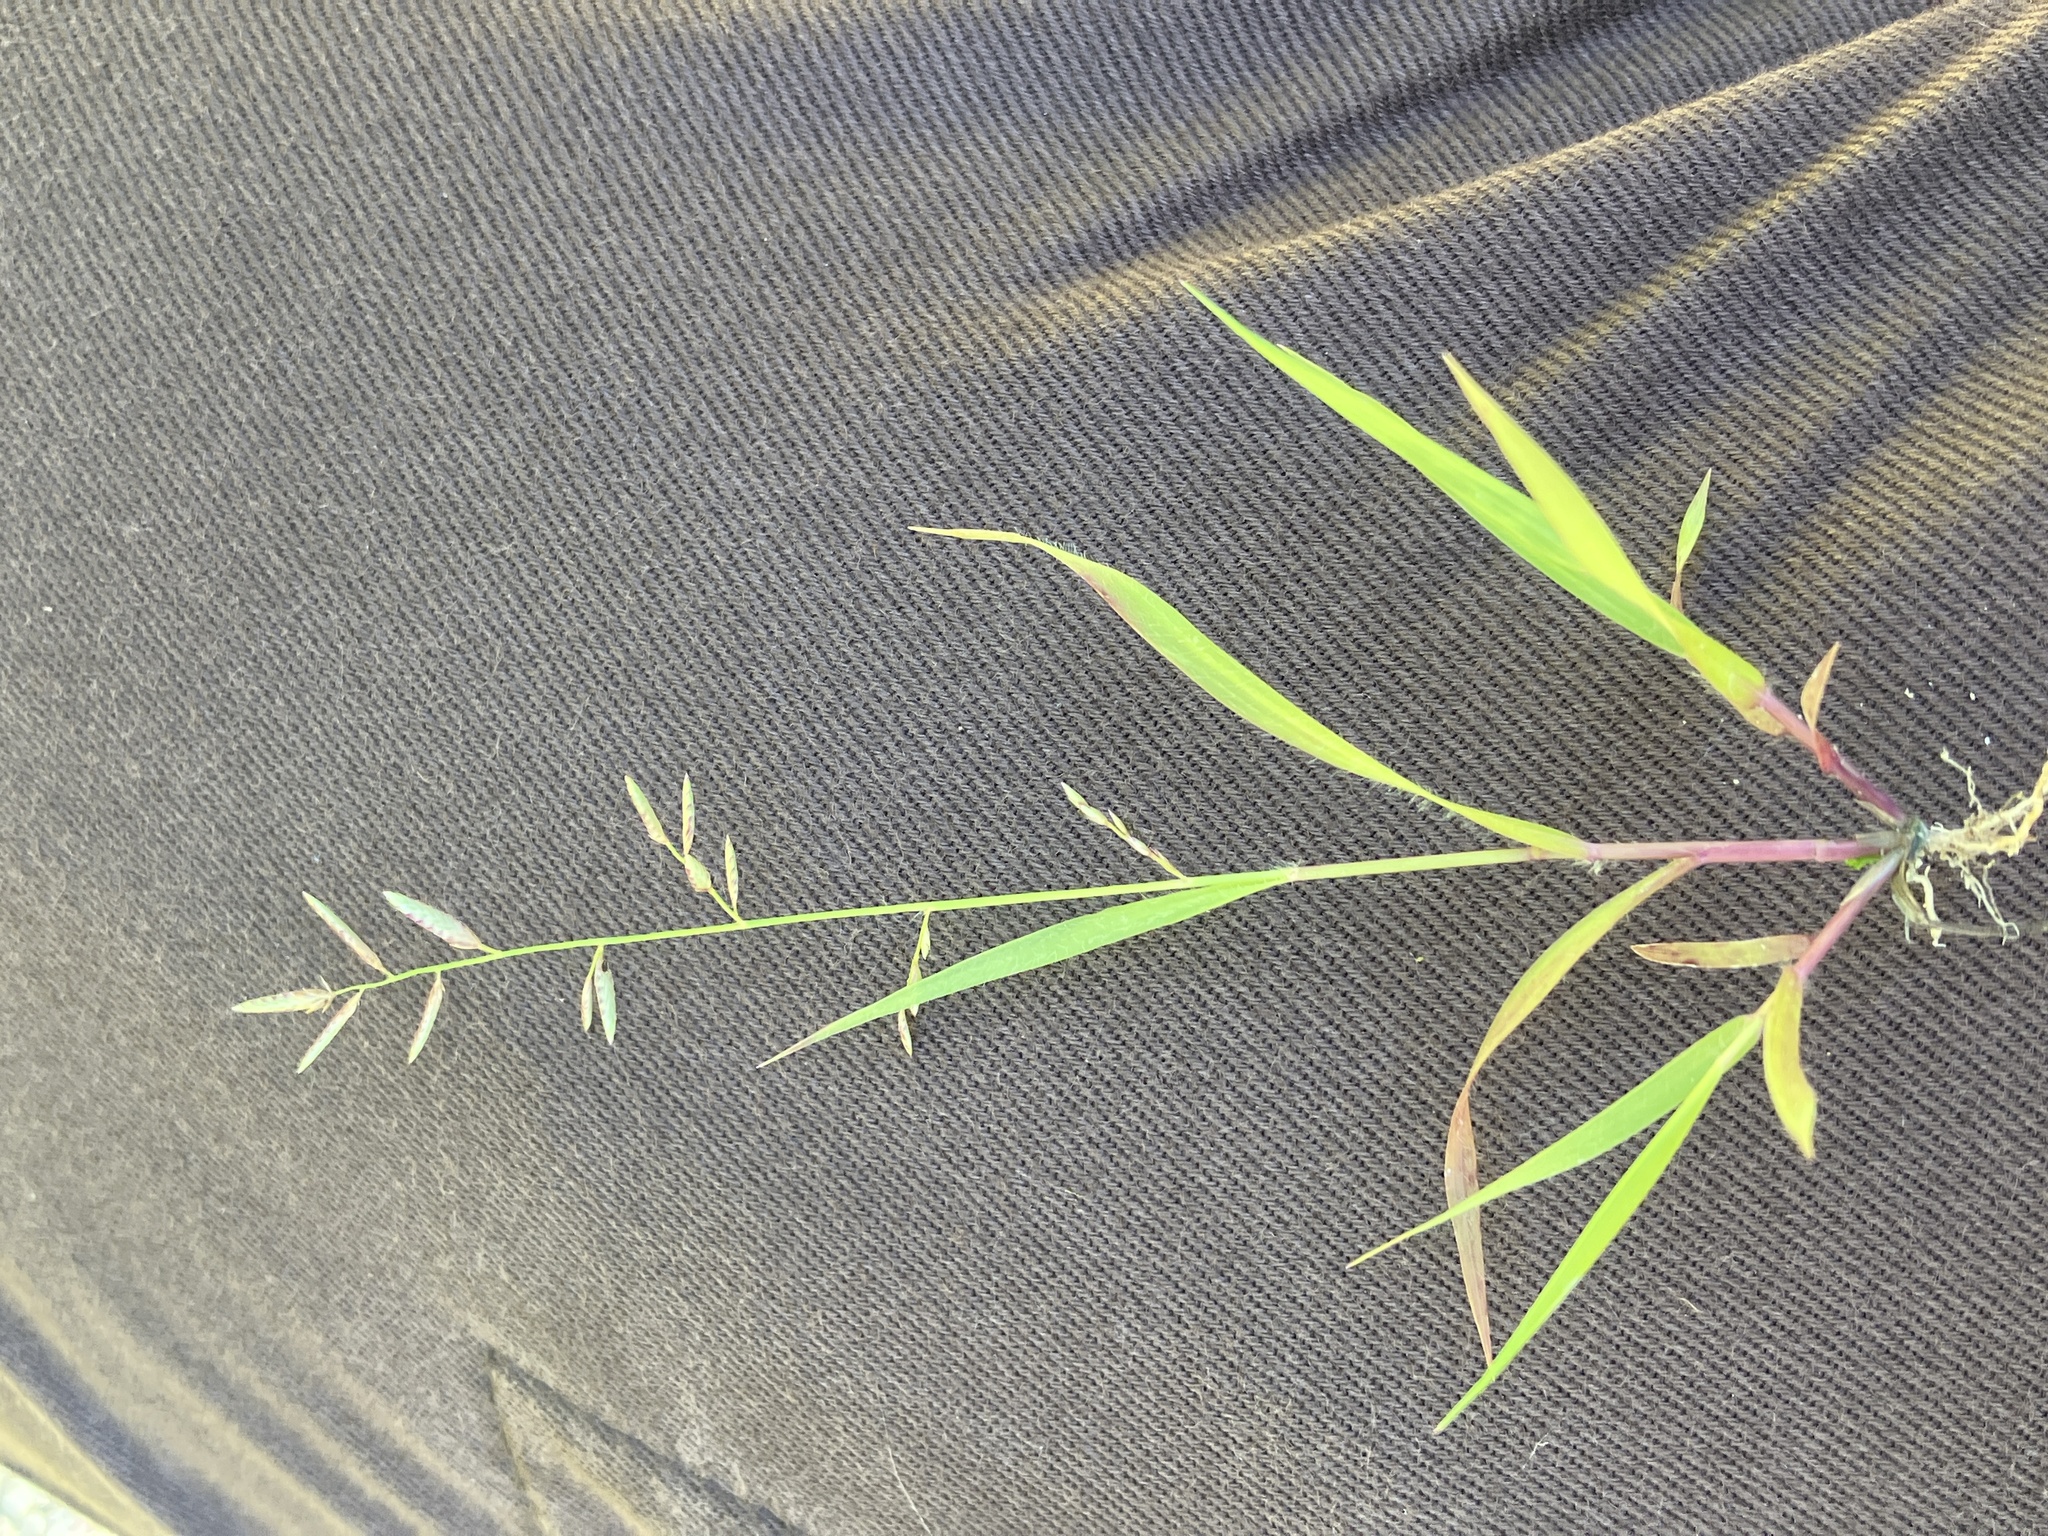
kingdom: Plantae
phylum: Tracheophyta
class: Liliopsida
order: Poales
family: Poaceae
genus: Eragrostis
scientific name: Eragrostis atrovirens
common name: Thalia lovegrass
